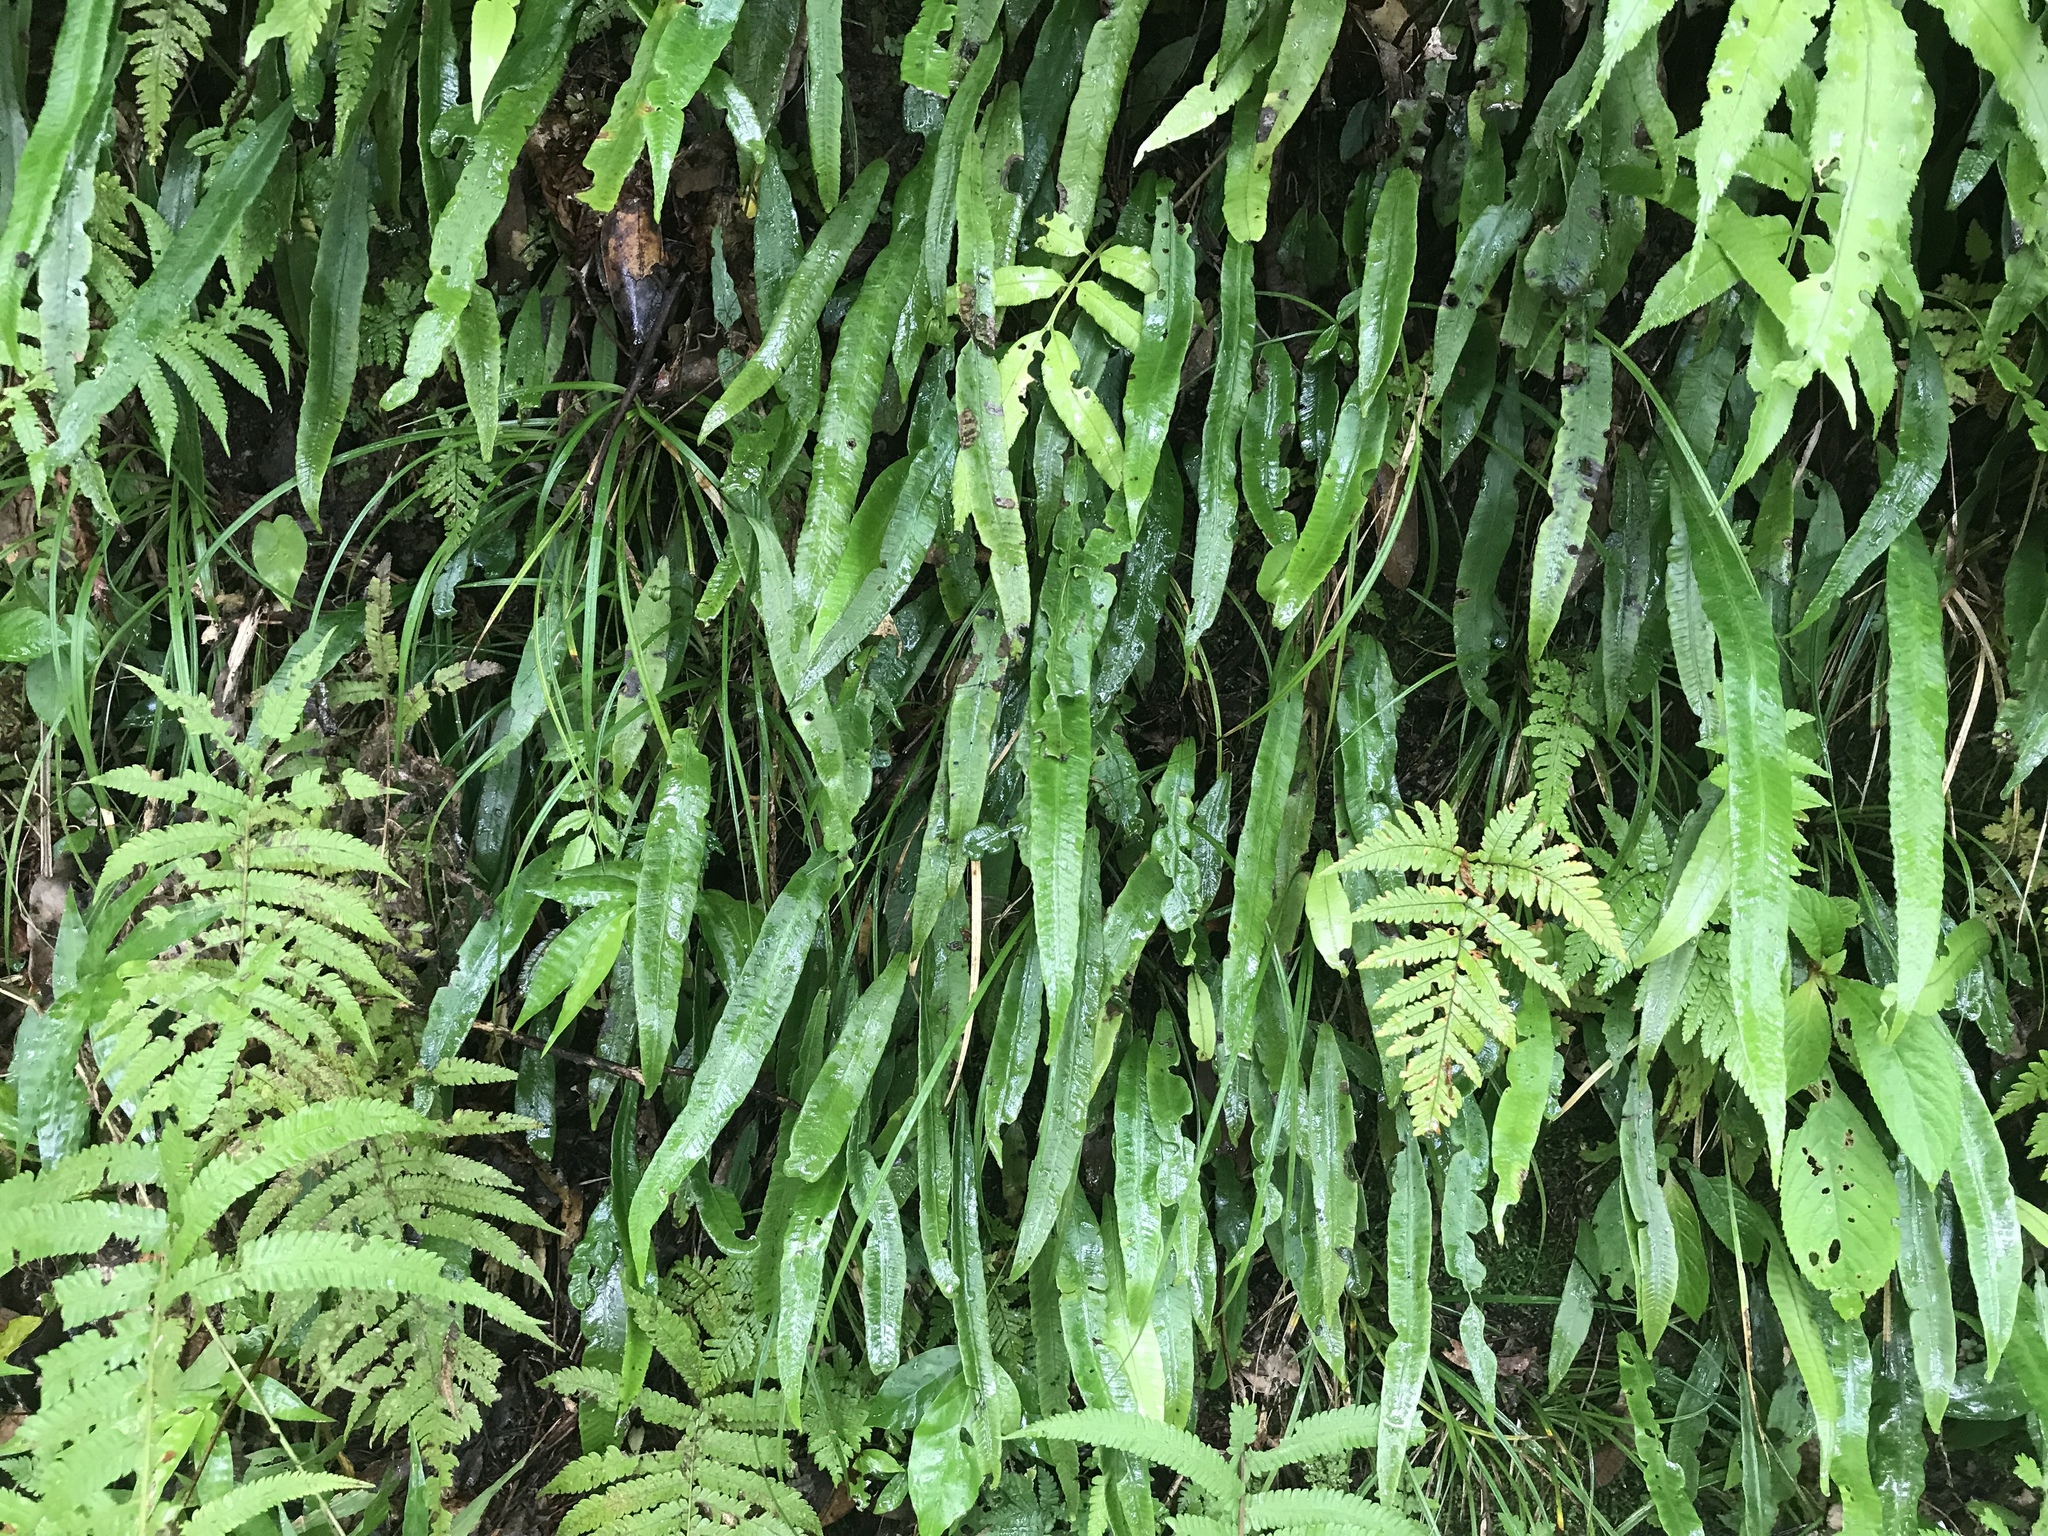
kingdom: Plantae
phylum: Tracheophyta
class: Polypodiopsida
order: Polypodiales
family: Athyriaceae
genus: Deparia
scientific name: Deparia lancea
